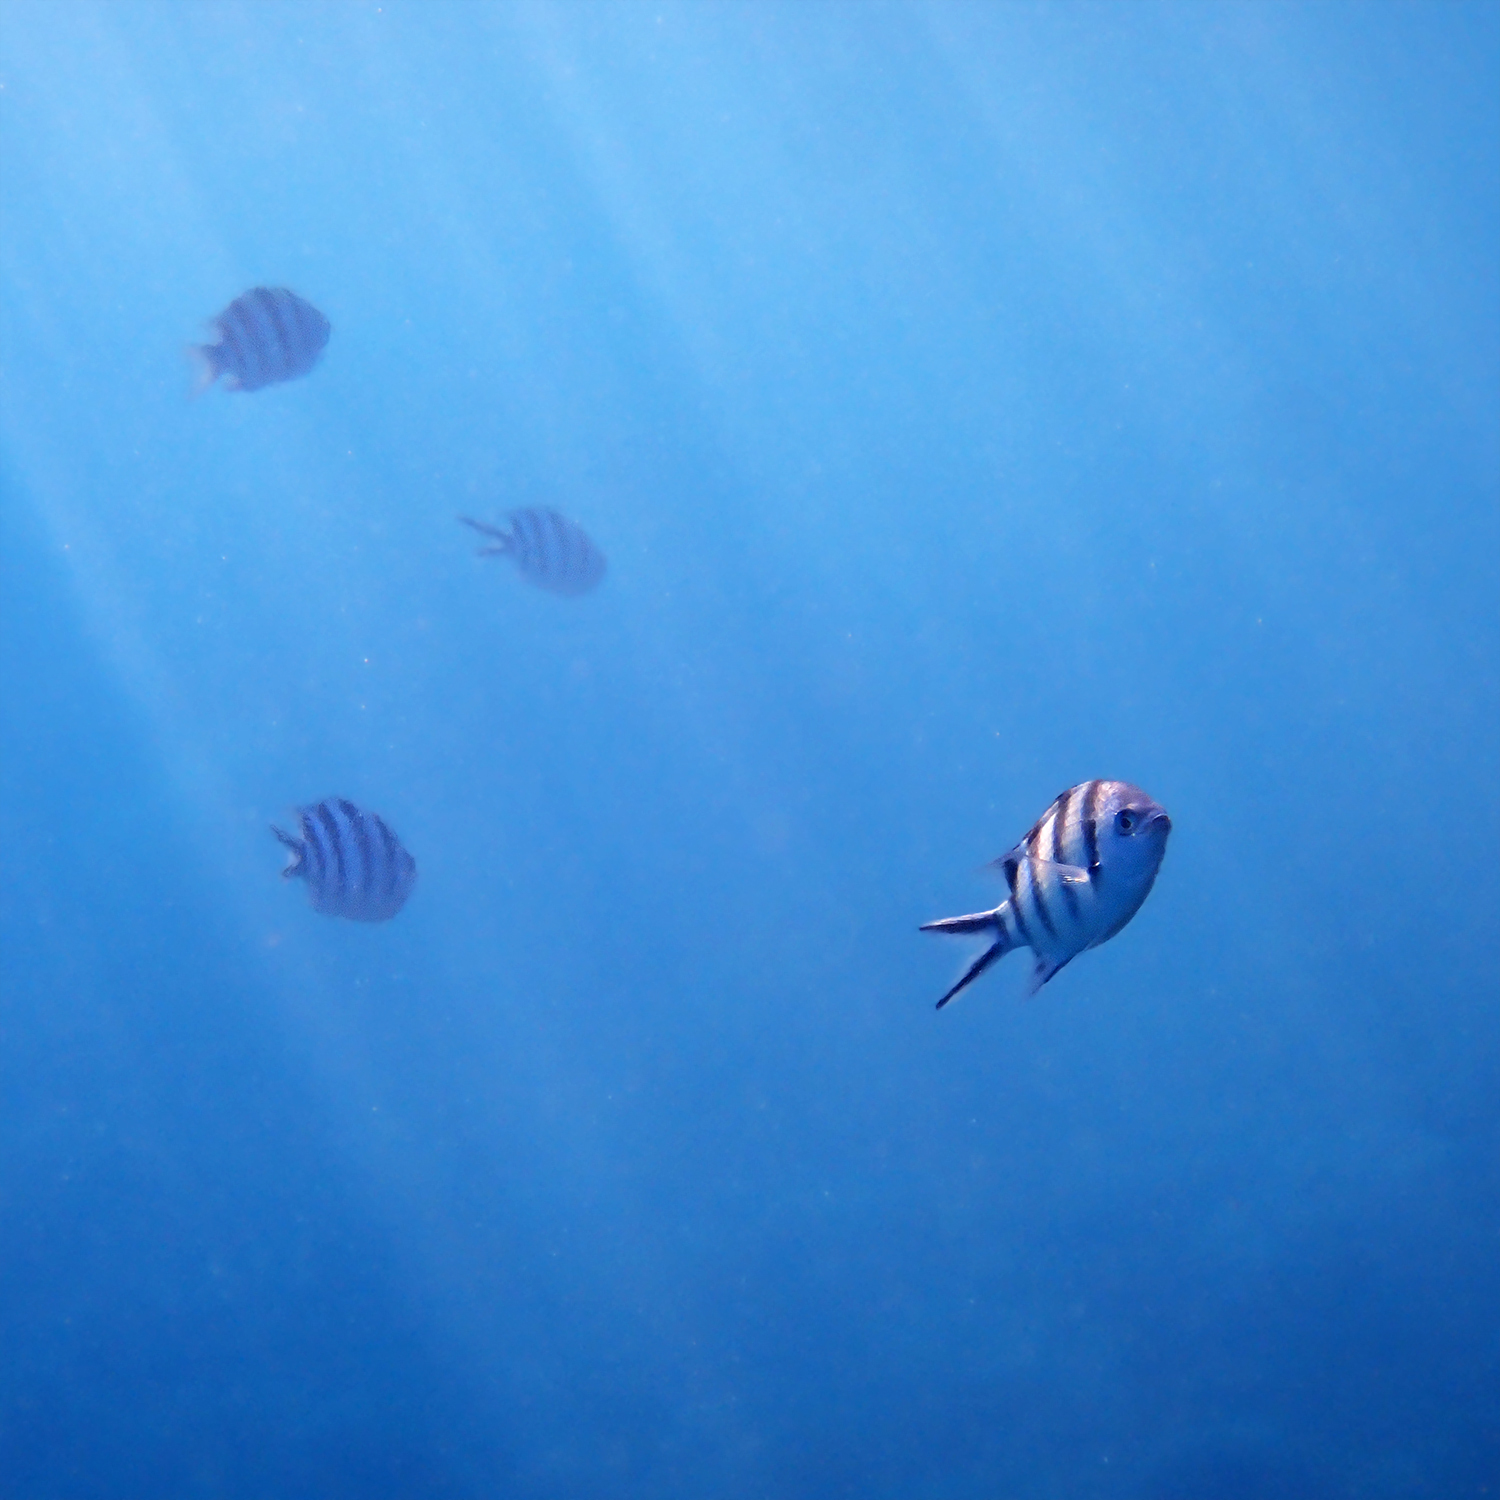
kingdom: Animalia
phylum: Chordata
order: Perciformes
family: Pomacentridae
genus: Abudefduf
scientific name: Abudefduf sexfasciatus
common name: Scissortail sergeant
